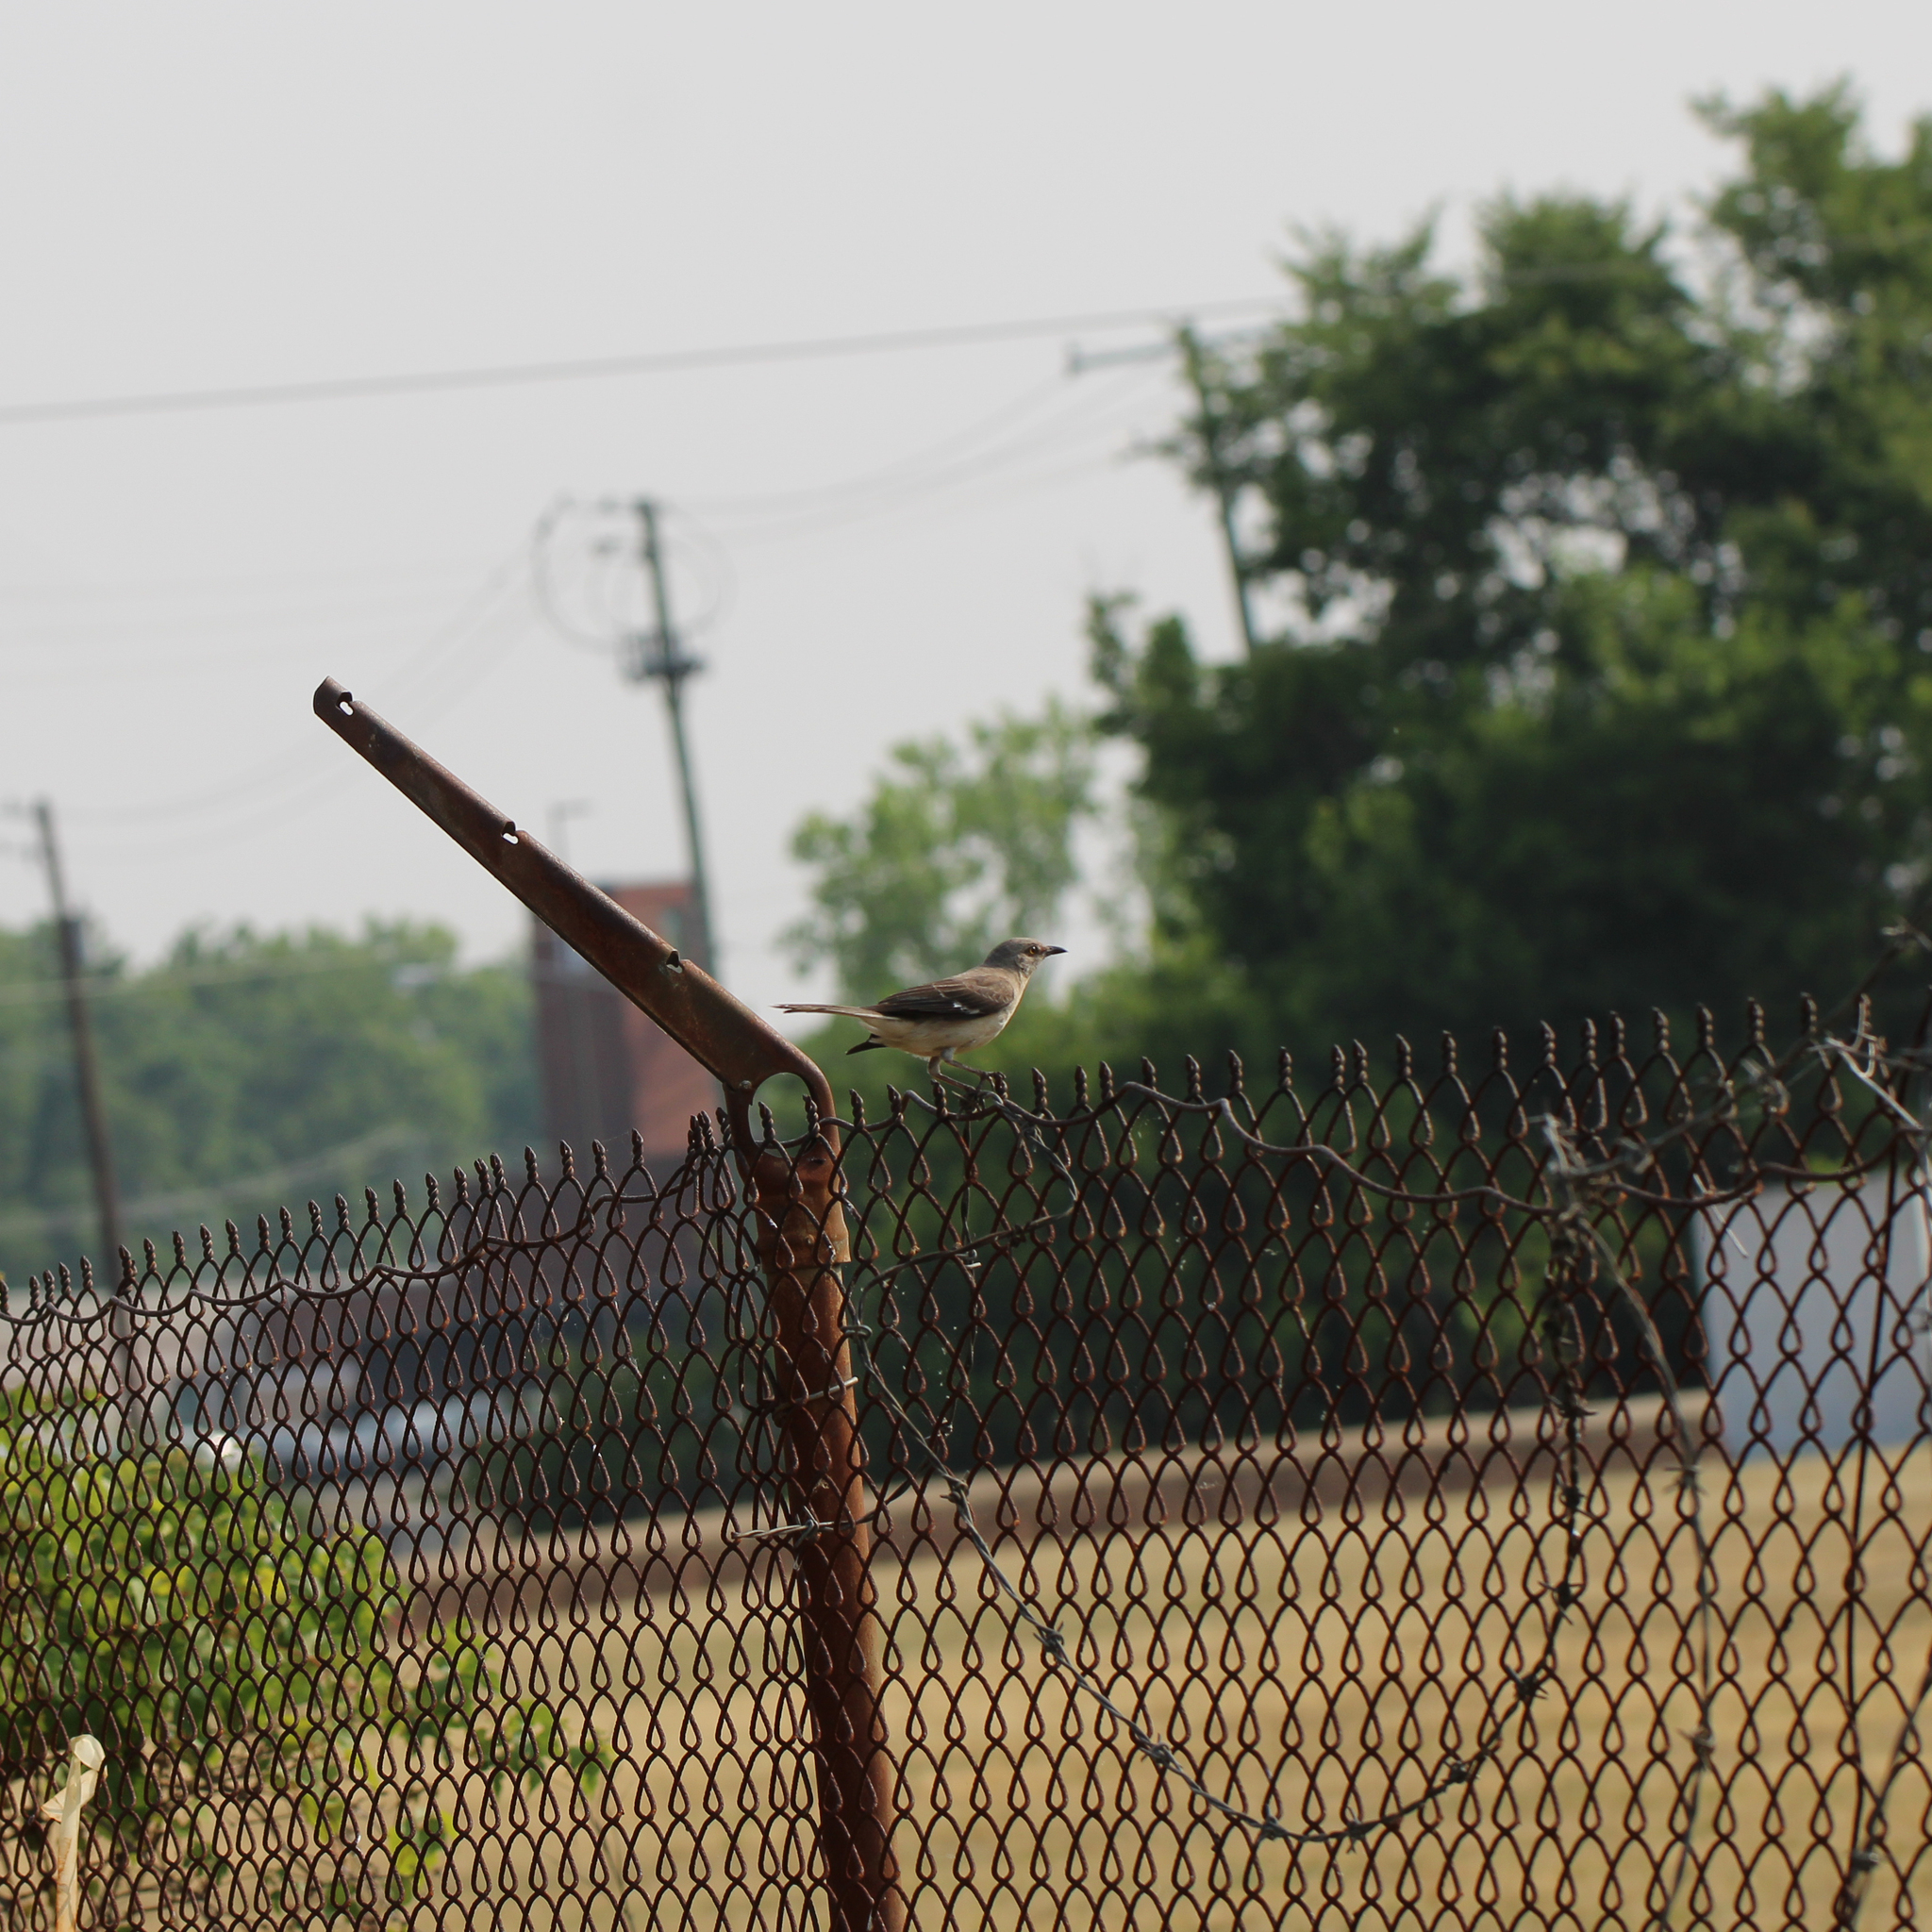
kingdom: Animalia
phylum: Chordata
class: Aves
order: Passeriformes
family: Mimidae
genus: Mimus
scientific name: Mimus polyglottos
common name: Northern mockingbird
